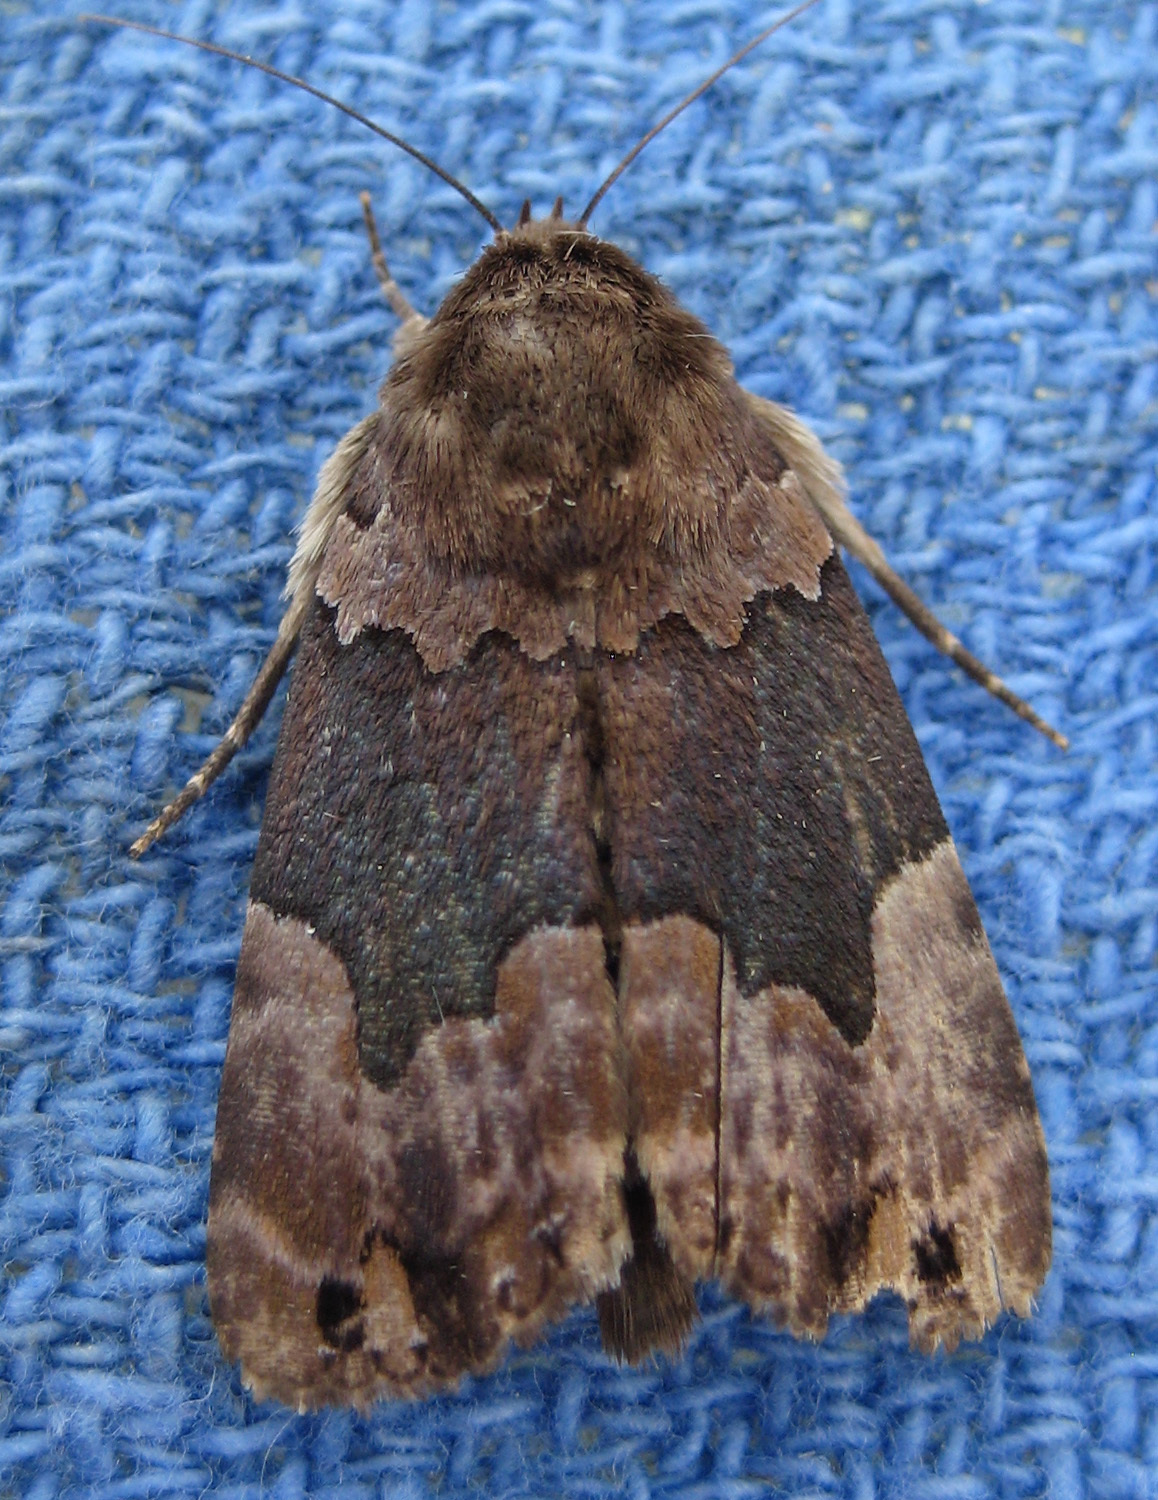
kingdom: Animalia
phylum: Arthropoda
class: Insecta
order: Lepidoptera
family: Erebidae
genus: Dinumma
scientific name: Dinumma deponens
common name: Purplish moth
